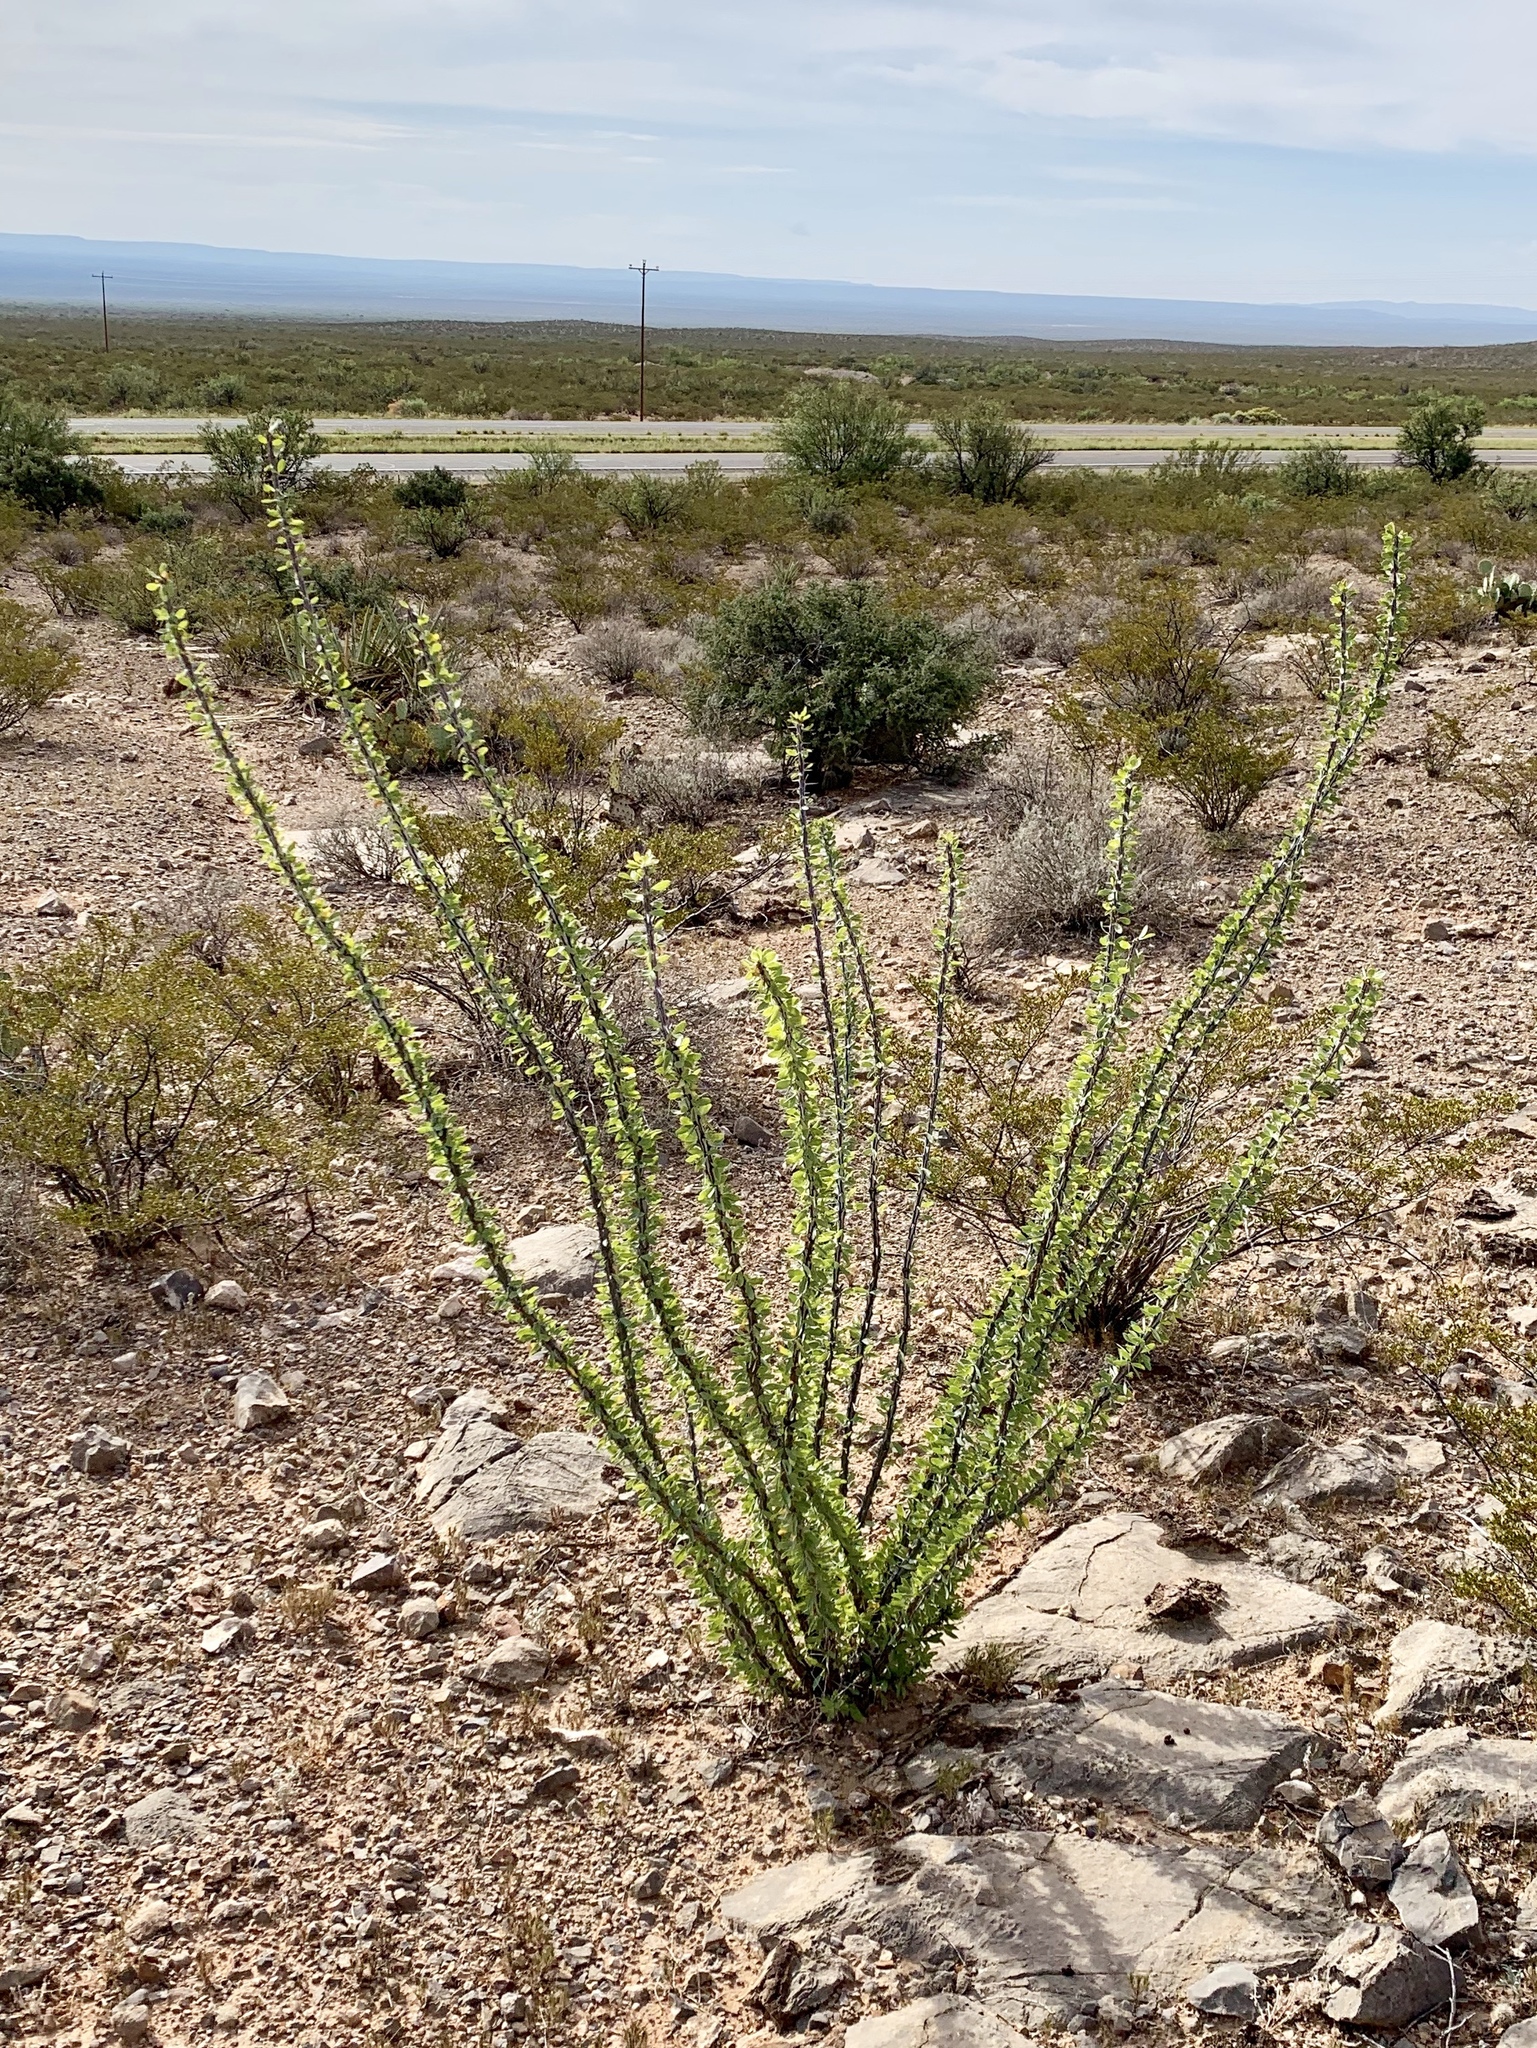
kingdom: Plantae
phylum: Tracheophyta
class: Magnoliopsida
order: Ericales
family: Fouquieriaceae
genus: Fouquieria
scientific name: Fouquieria splendens
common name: Vine-cactus
